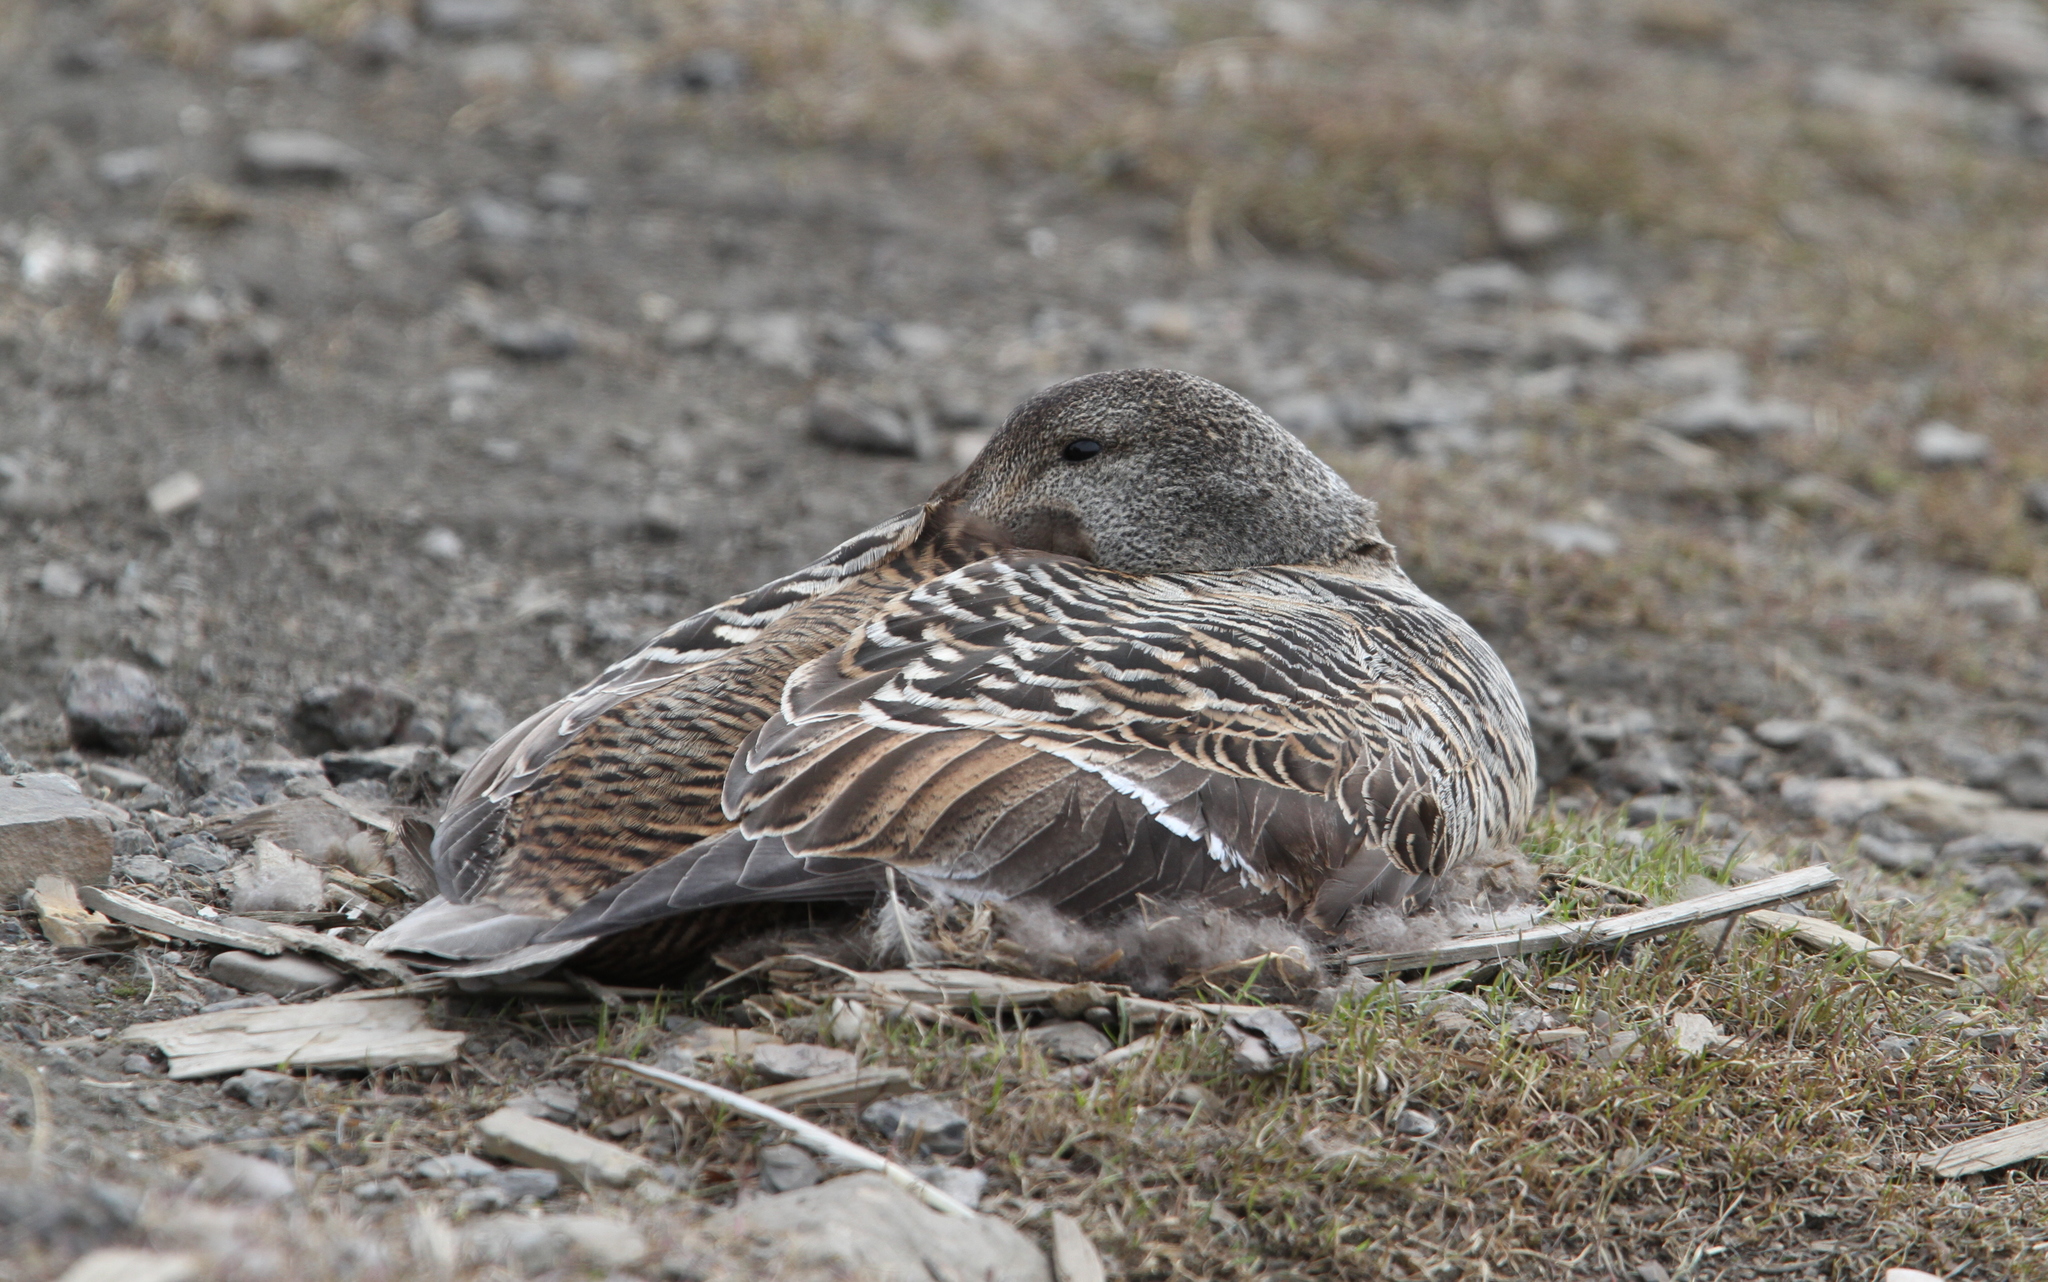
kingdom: Animalia
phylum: Chordata
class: Aves
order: Anseriformes
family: Anatidae
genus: Somateria
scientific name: Somateria mollissima
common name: Common eider
